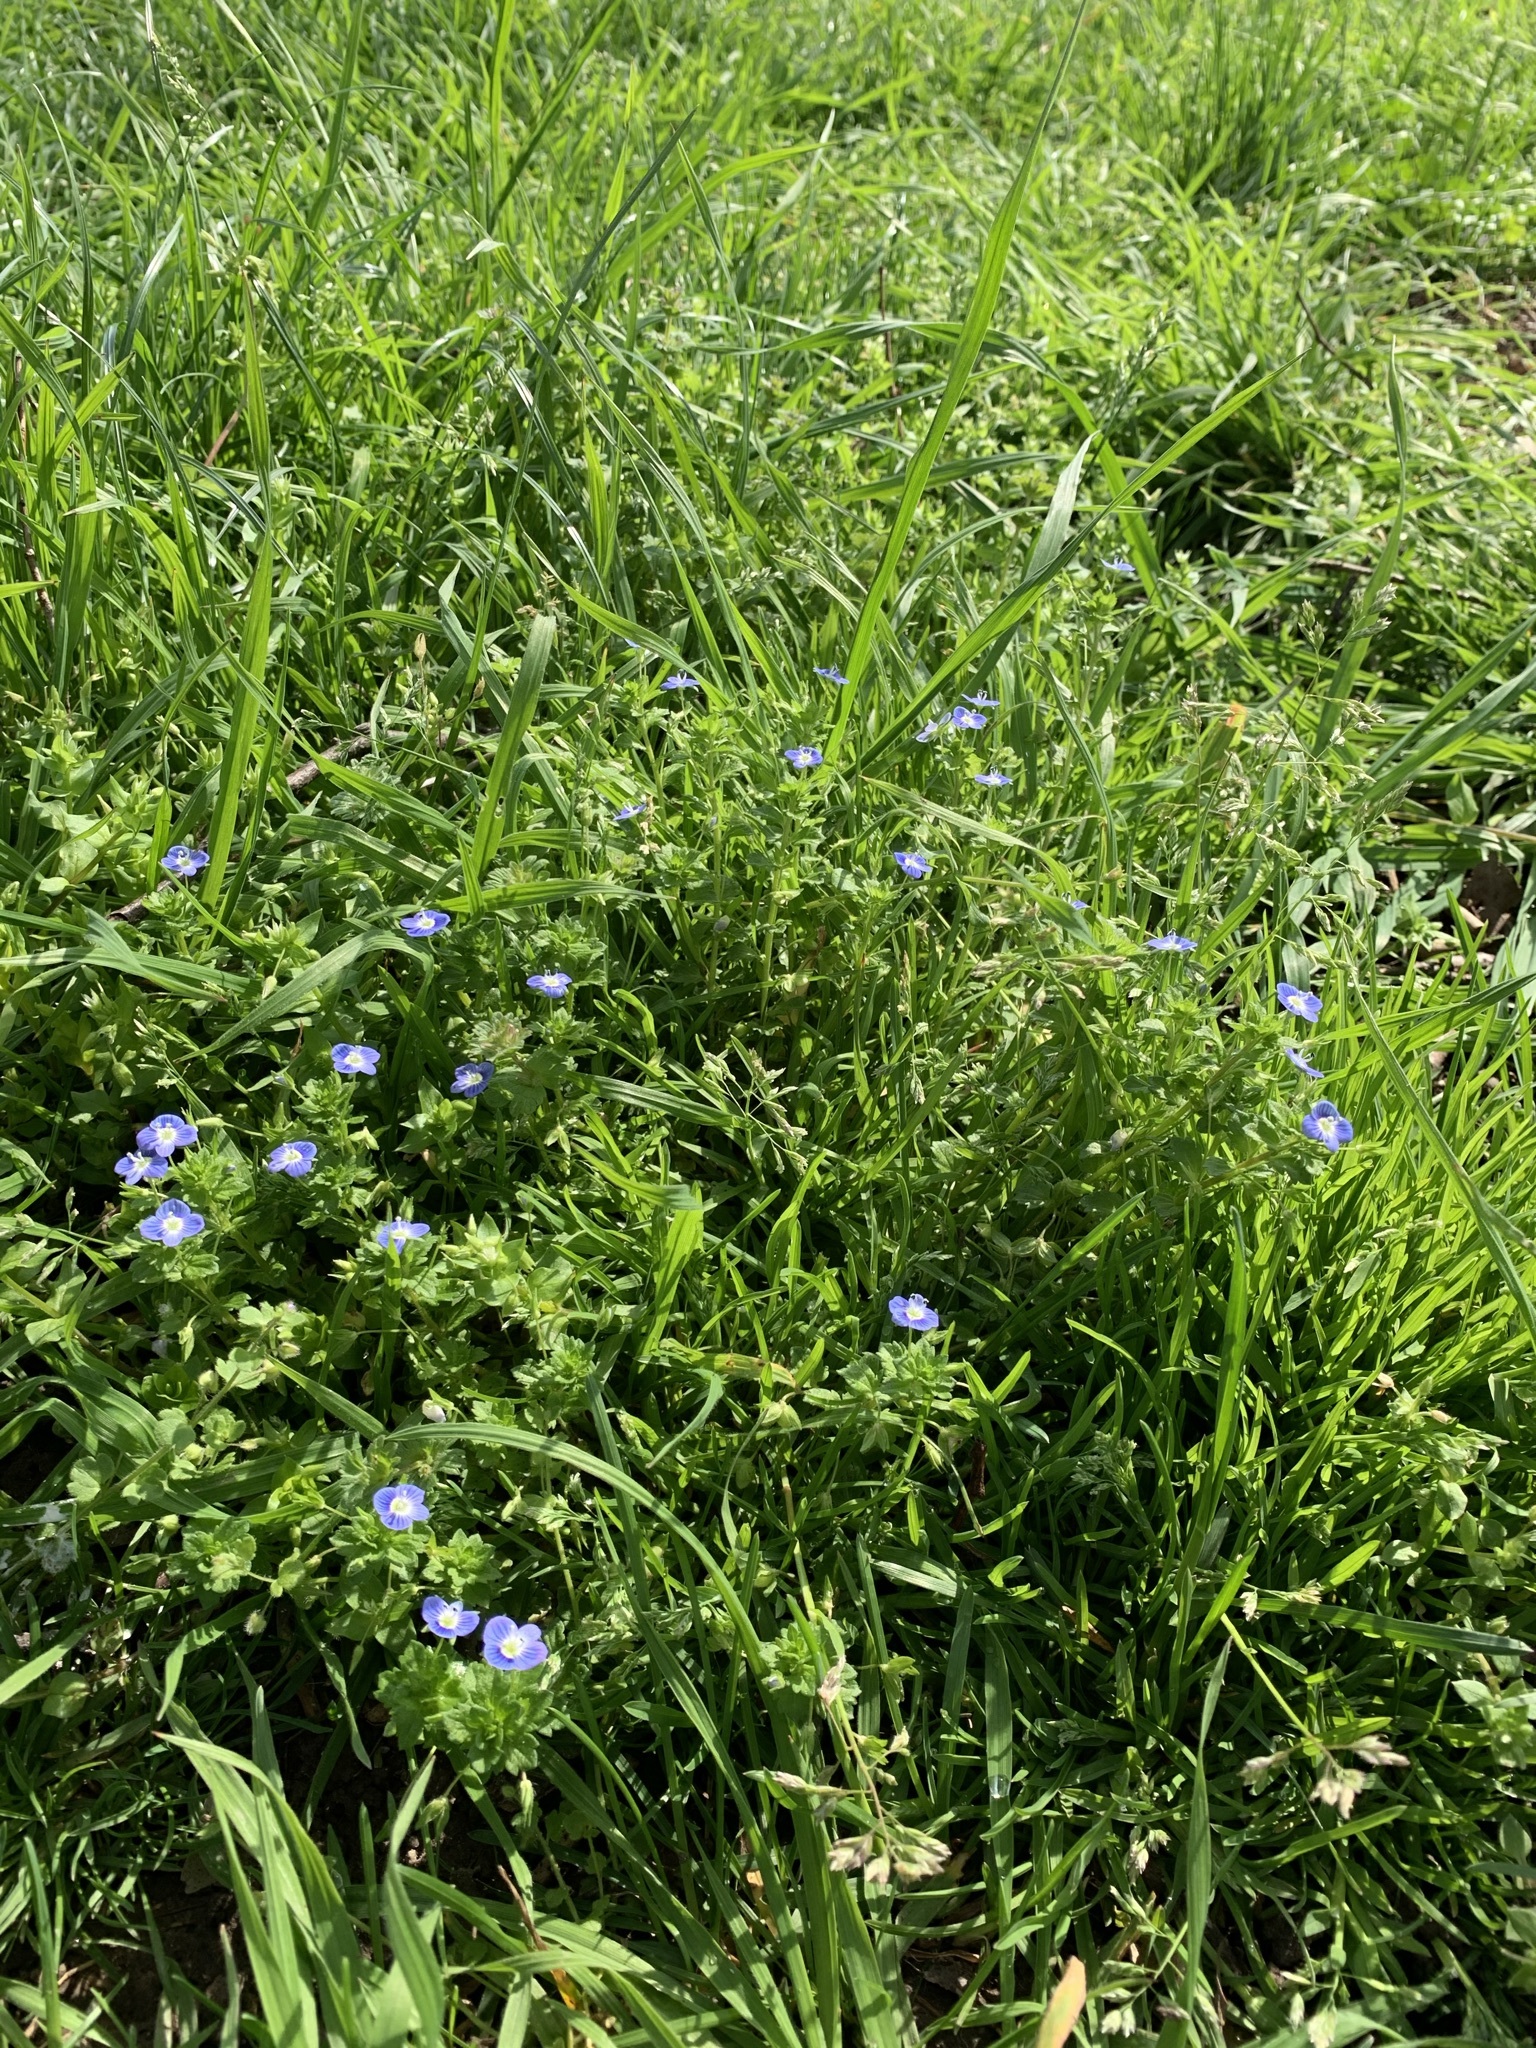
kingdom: Plantae
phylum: Tracheophyta
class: Magnoliopsida
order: Lamiales
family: Plantaginaceae
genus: Veronica
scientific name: Veronica persica
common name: Common field-speedwell
